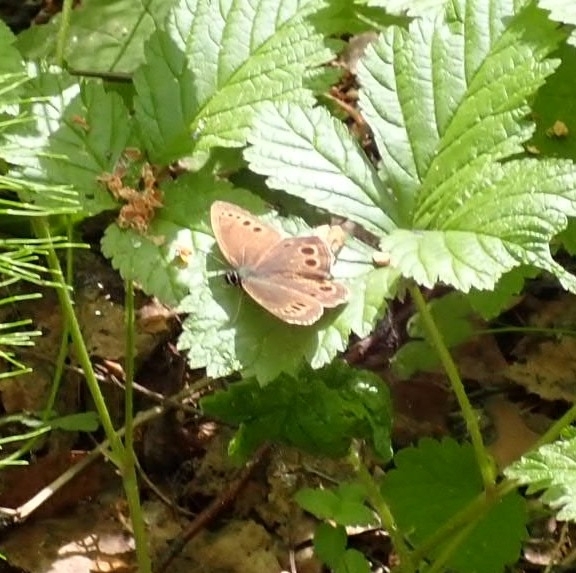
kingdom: Animalia
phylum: Arthropoda
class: Insecta
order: Lepidoptera
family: Nymphalidae
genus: Pararge
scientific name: Pararge Lopinga achine
